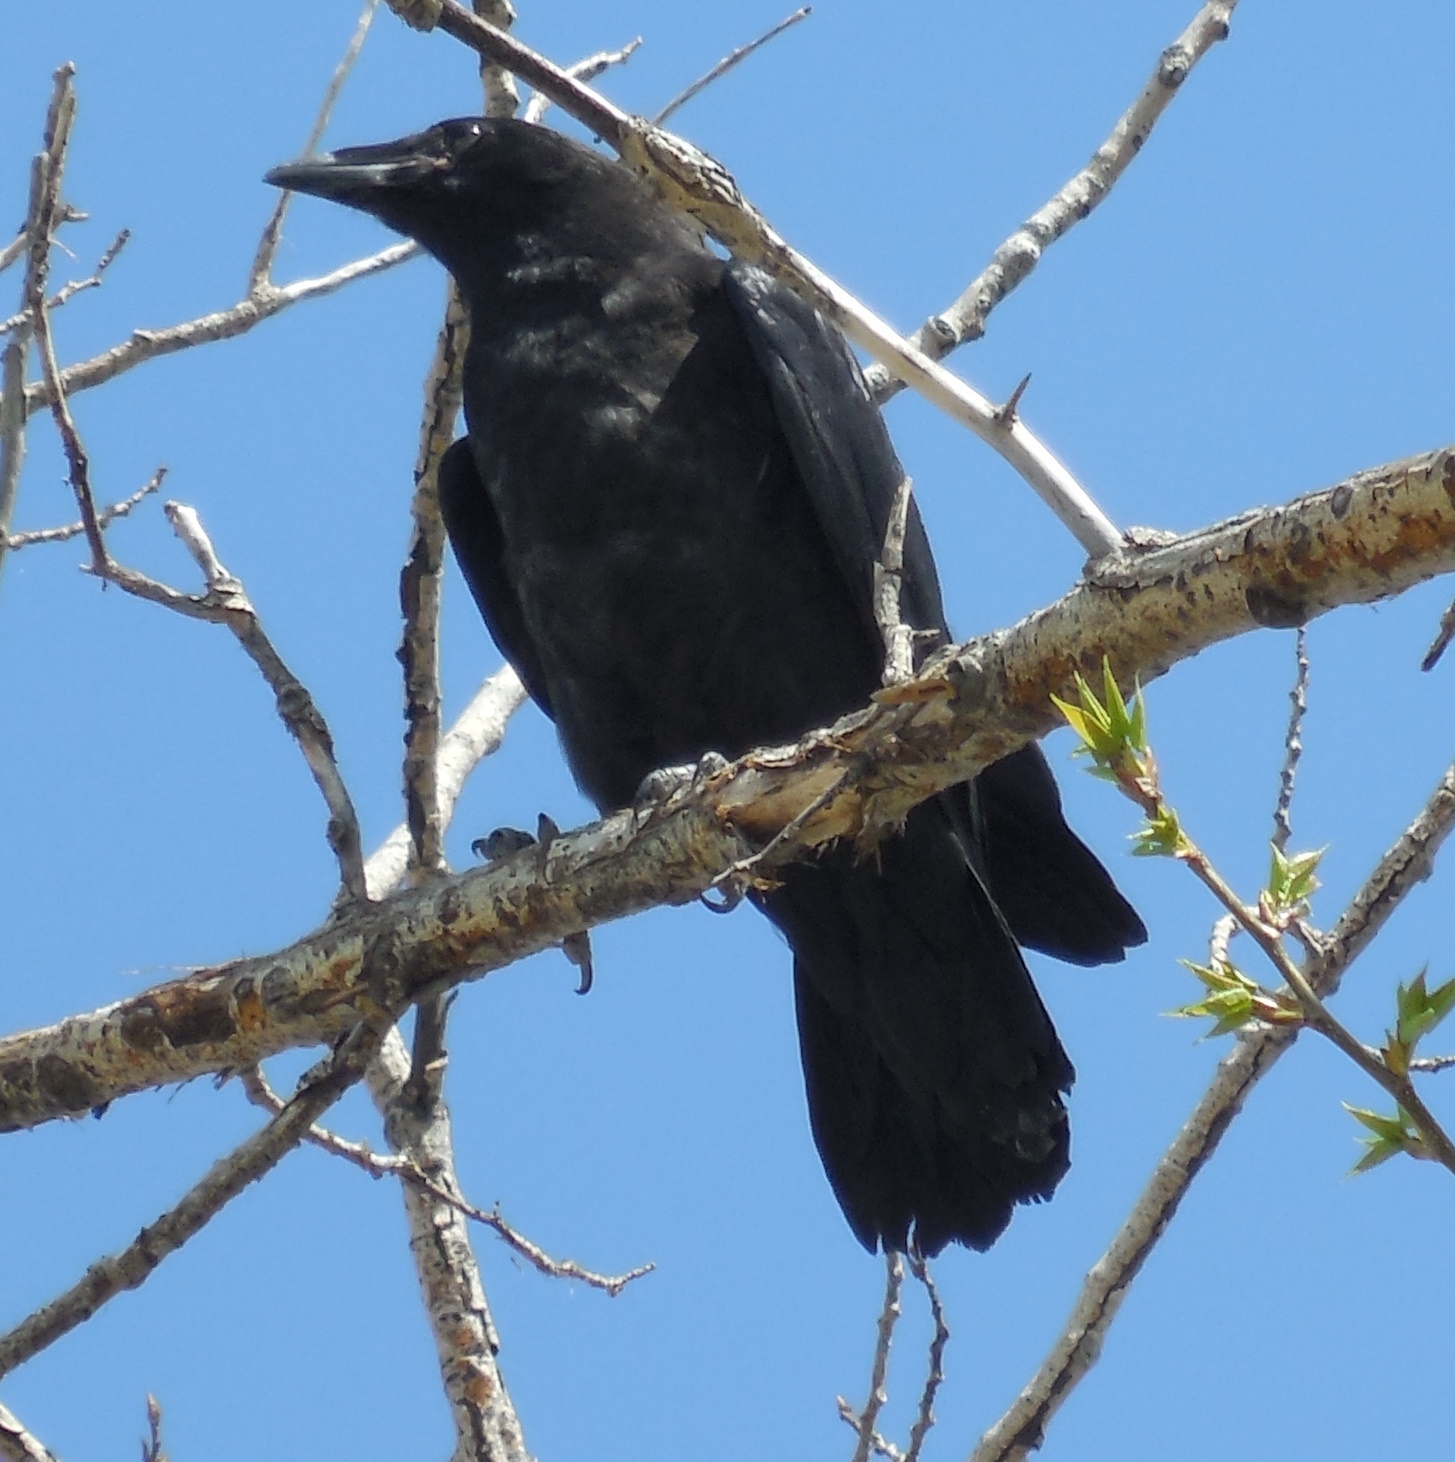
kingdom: Animalia
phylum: Chordata
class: Aves
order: Passeriformes
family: Corvidae
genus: Corvus
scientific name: Corvus brachyrhynchos
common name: American crow
